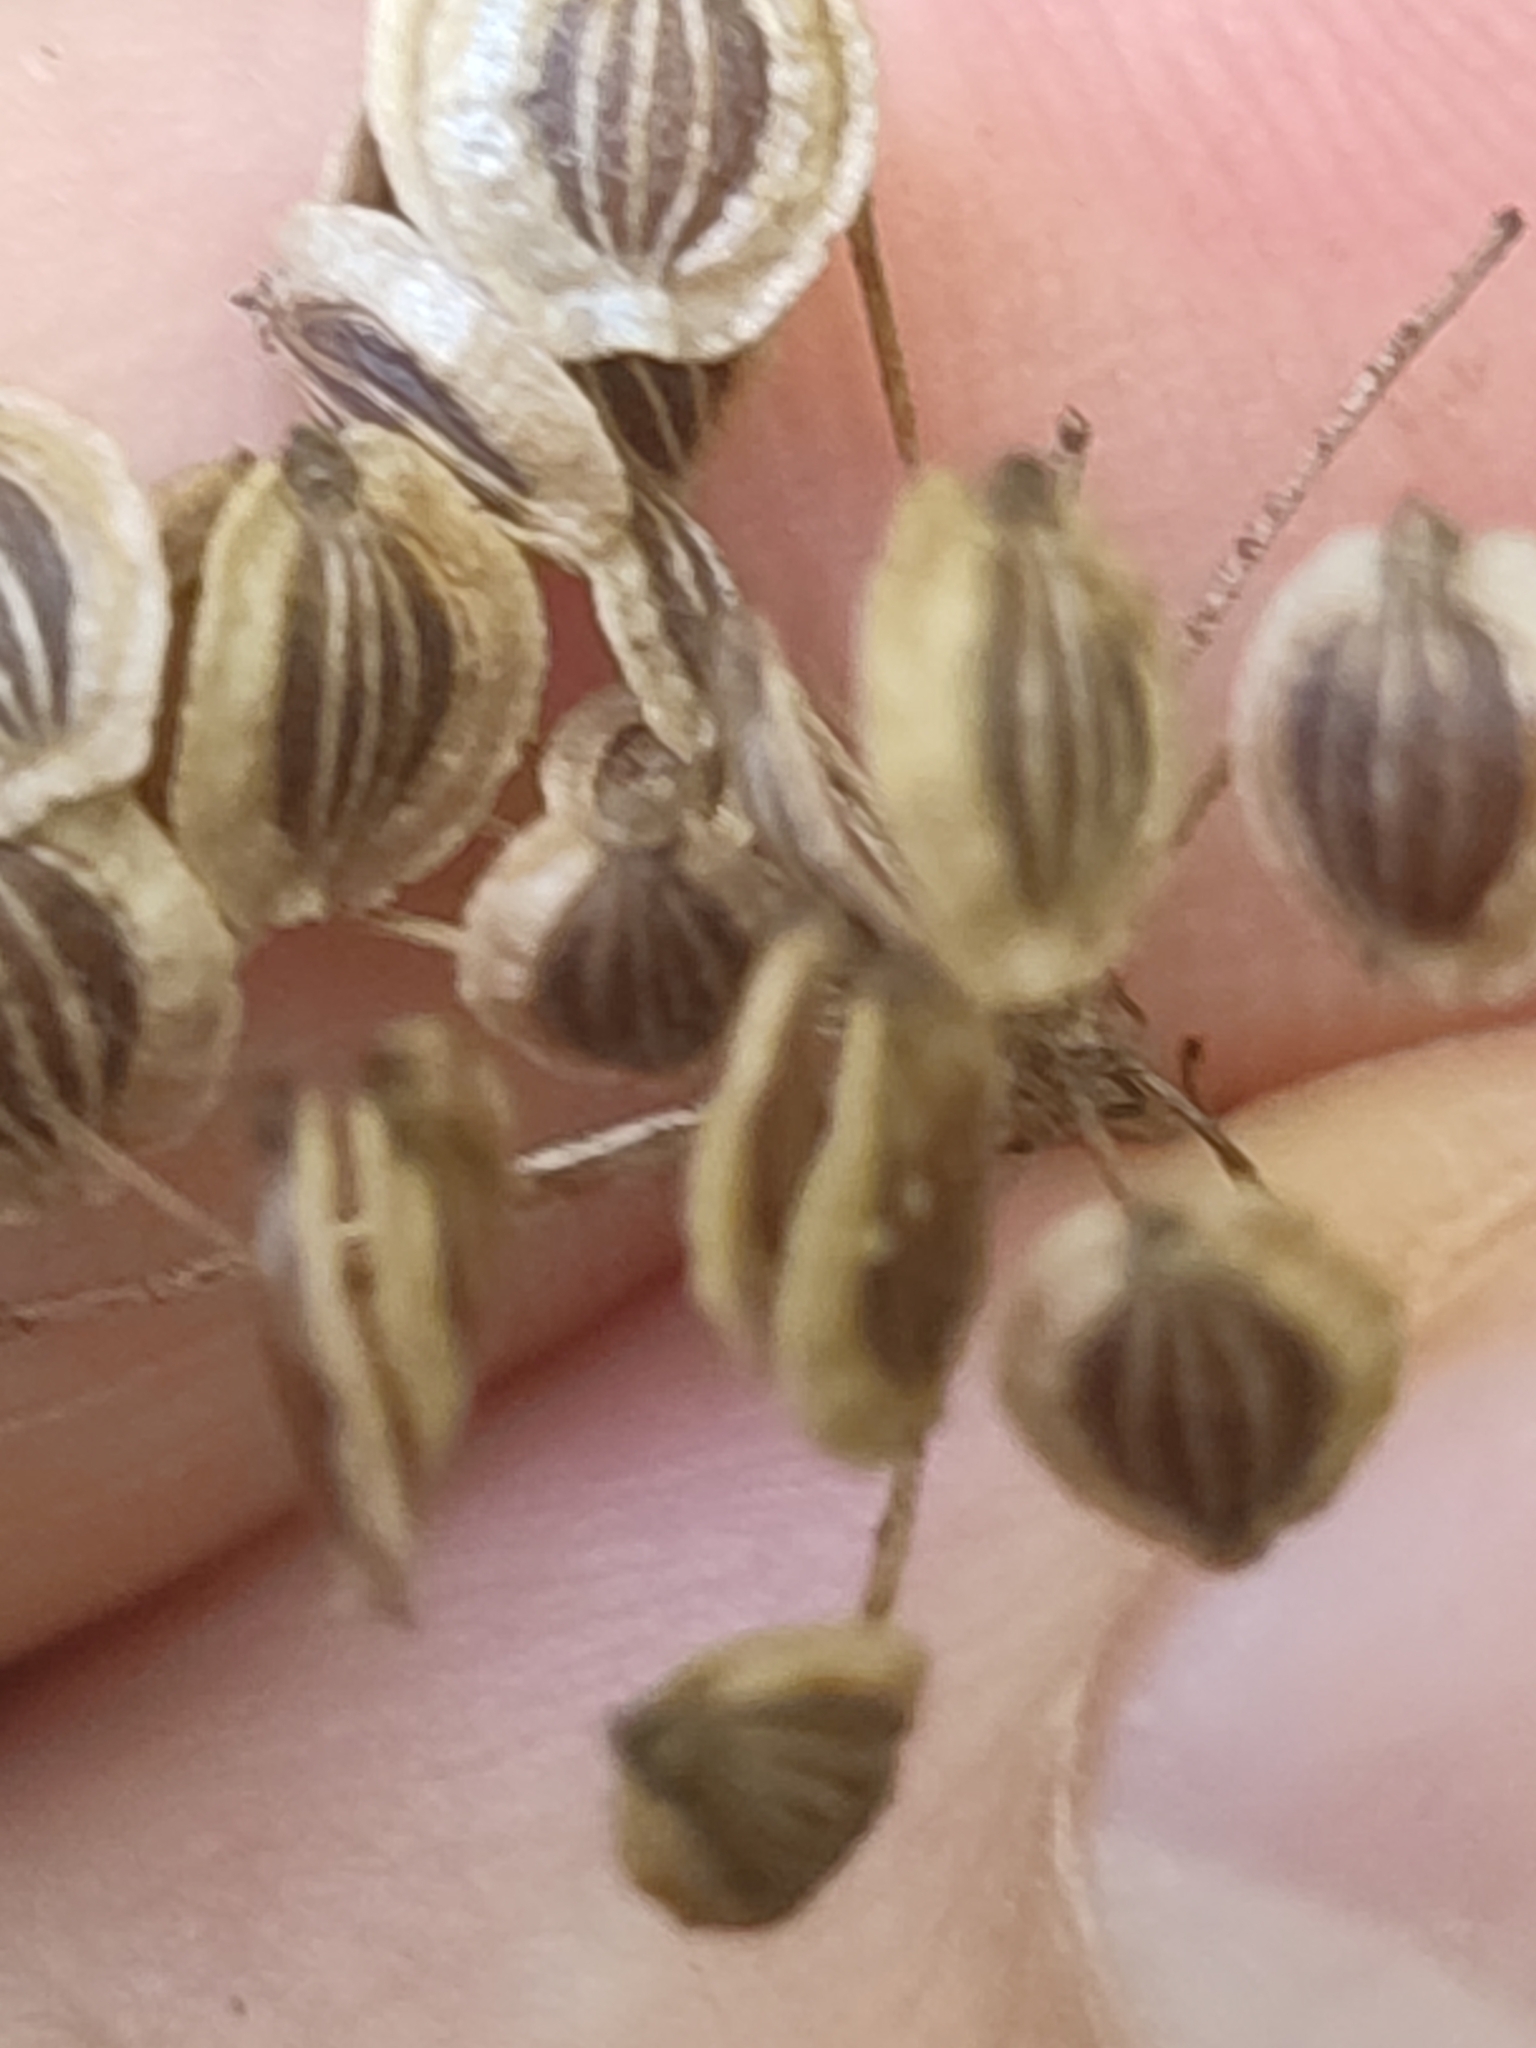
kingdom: Plantae
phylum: Tracheophyta
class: Magnoliopsida
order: Apiales
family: Apiaceae
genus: Oreoselinum
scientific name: Oreoselinum nigrum
